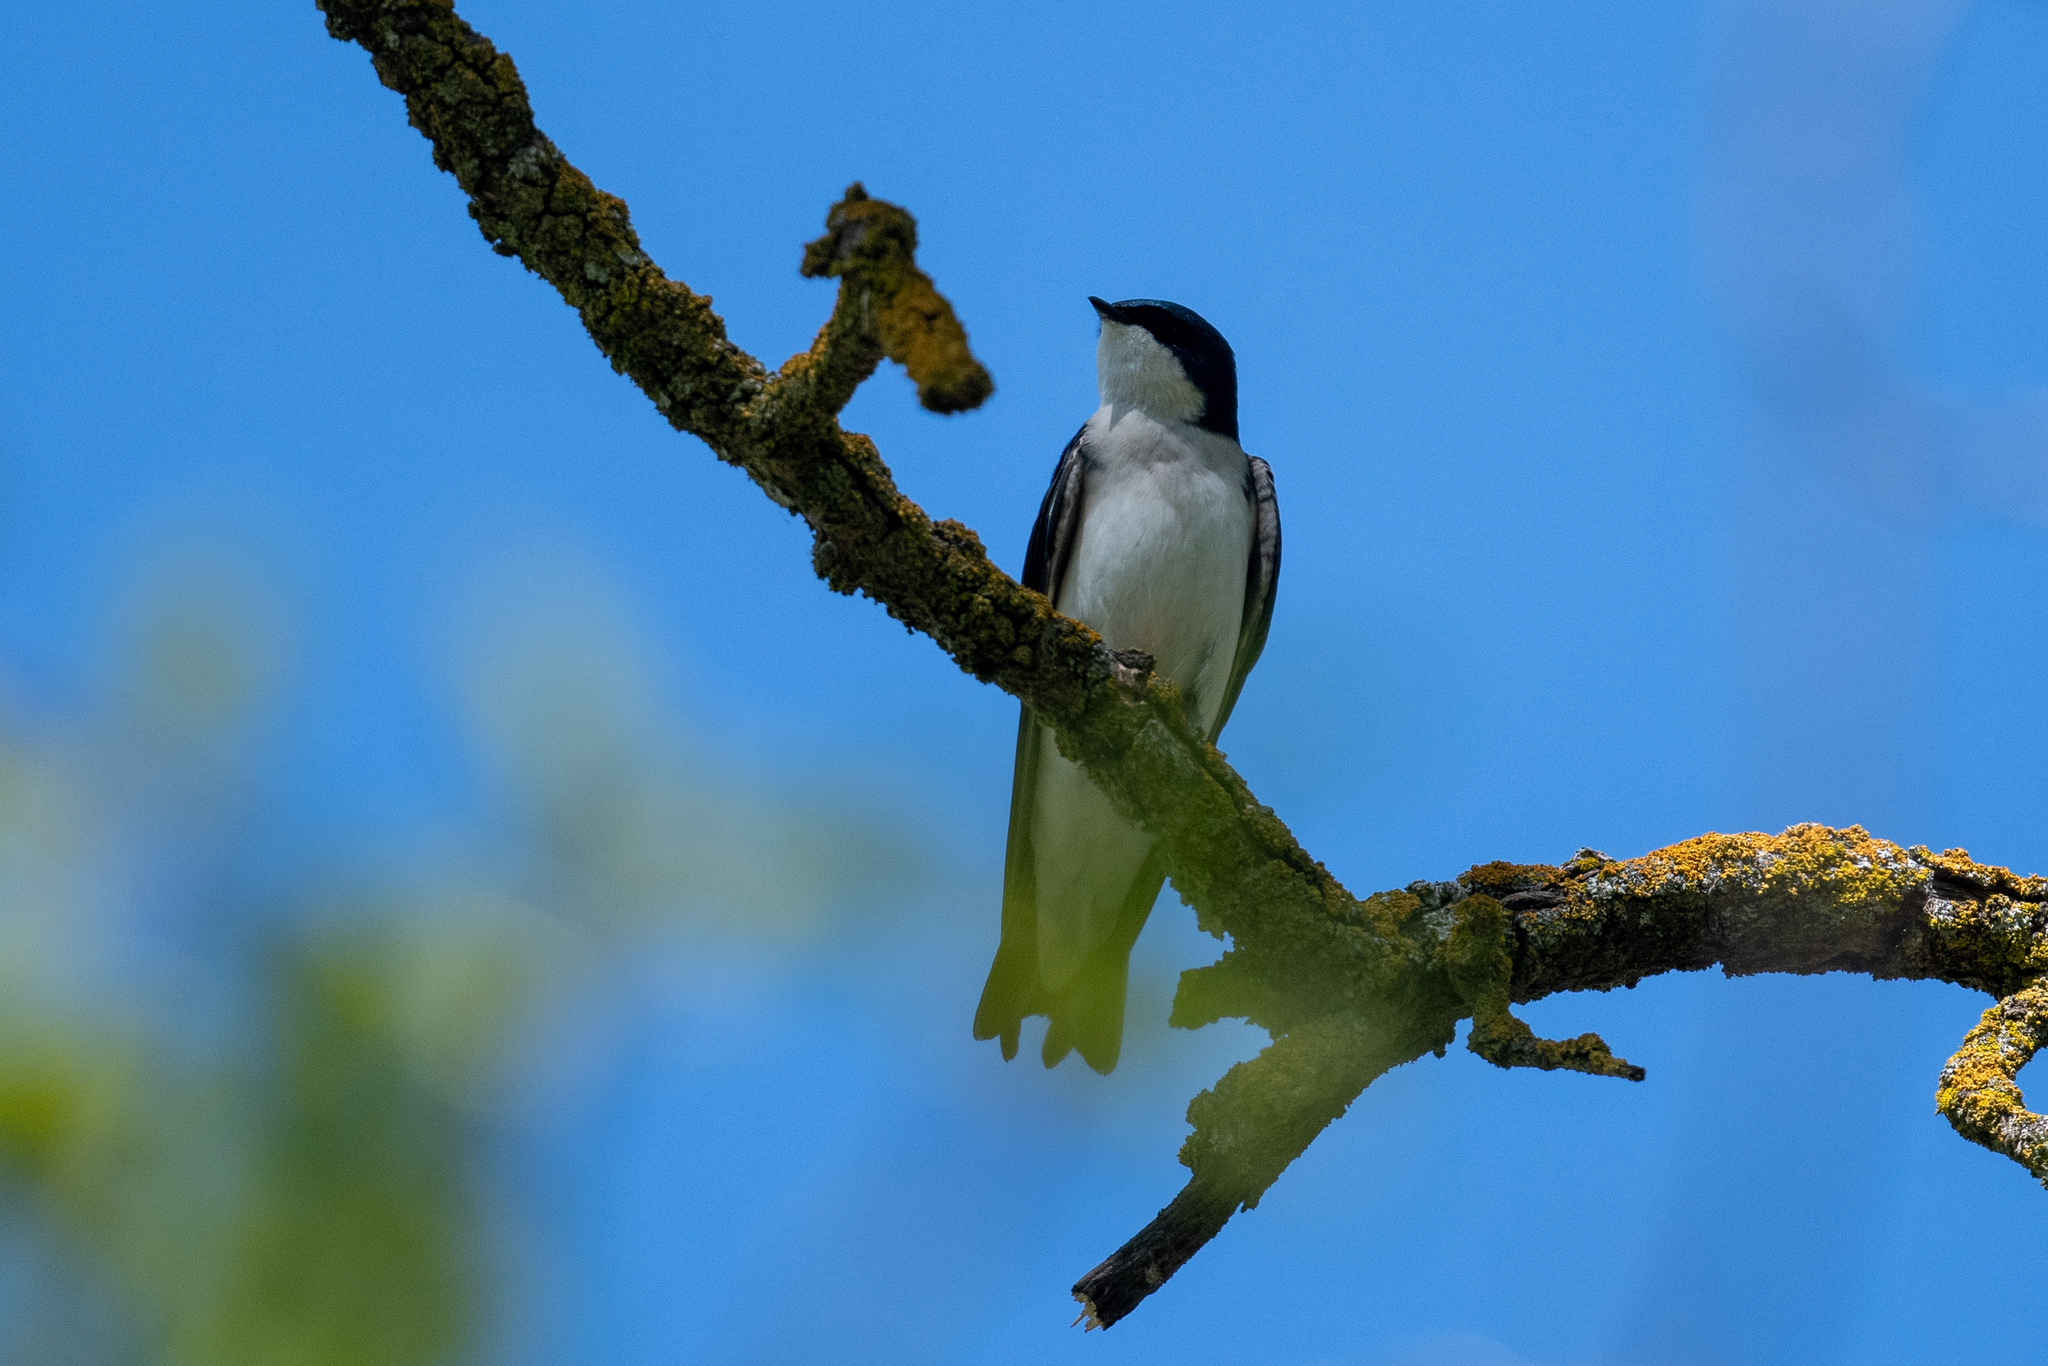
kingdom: Animalia
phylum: Chordata
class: Aves
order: Passeriformes
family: Hirundinidae
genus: Tachycineta
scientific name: Tachycineta bicolor
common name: Tree swallow
